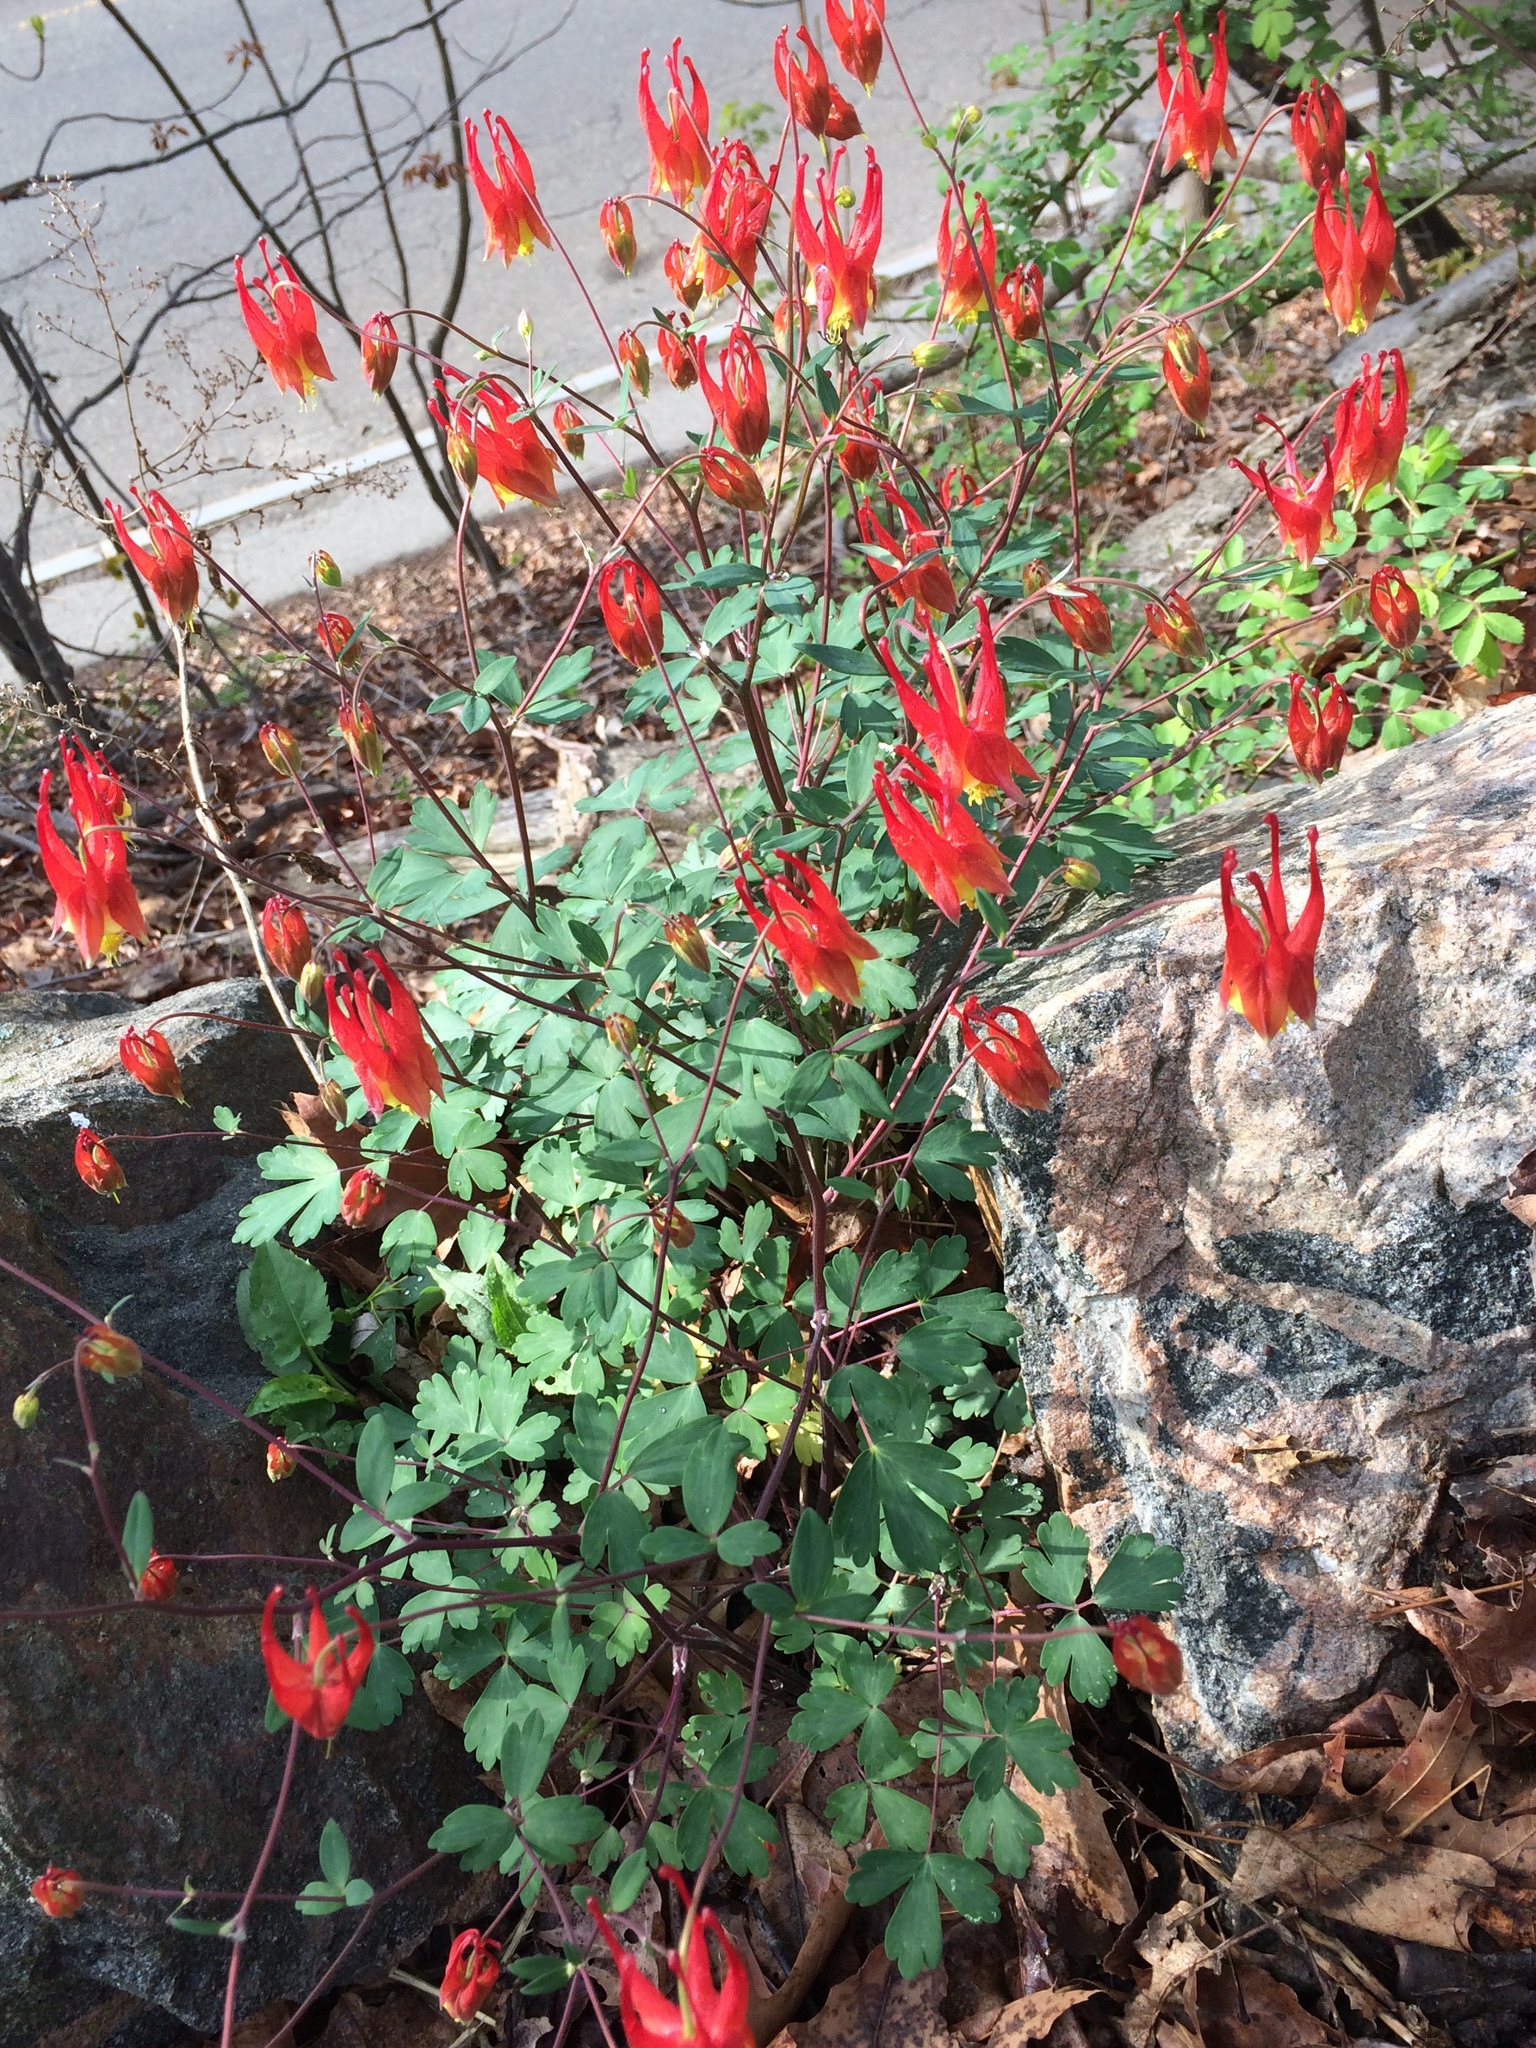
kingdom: Plantae
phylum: Tracheophyta
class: Magnoliopsida
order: Ranunculales
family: Ranunculaceae
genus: Aquilegia
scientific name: Aquilegia canadensis
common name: American columbine
